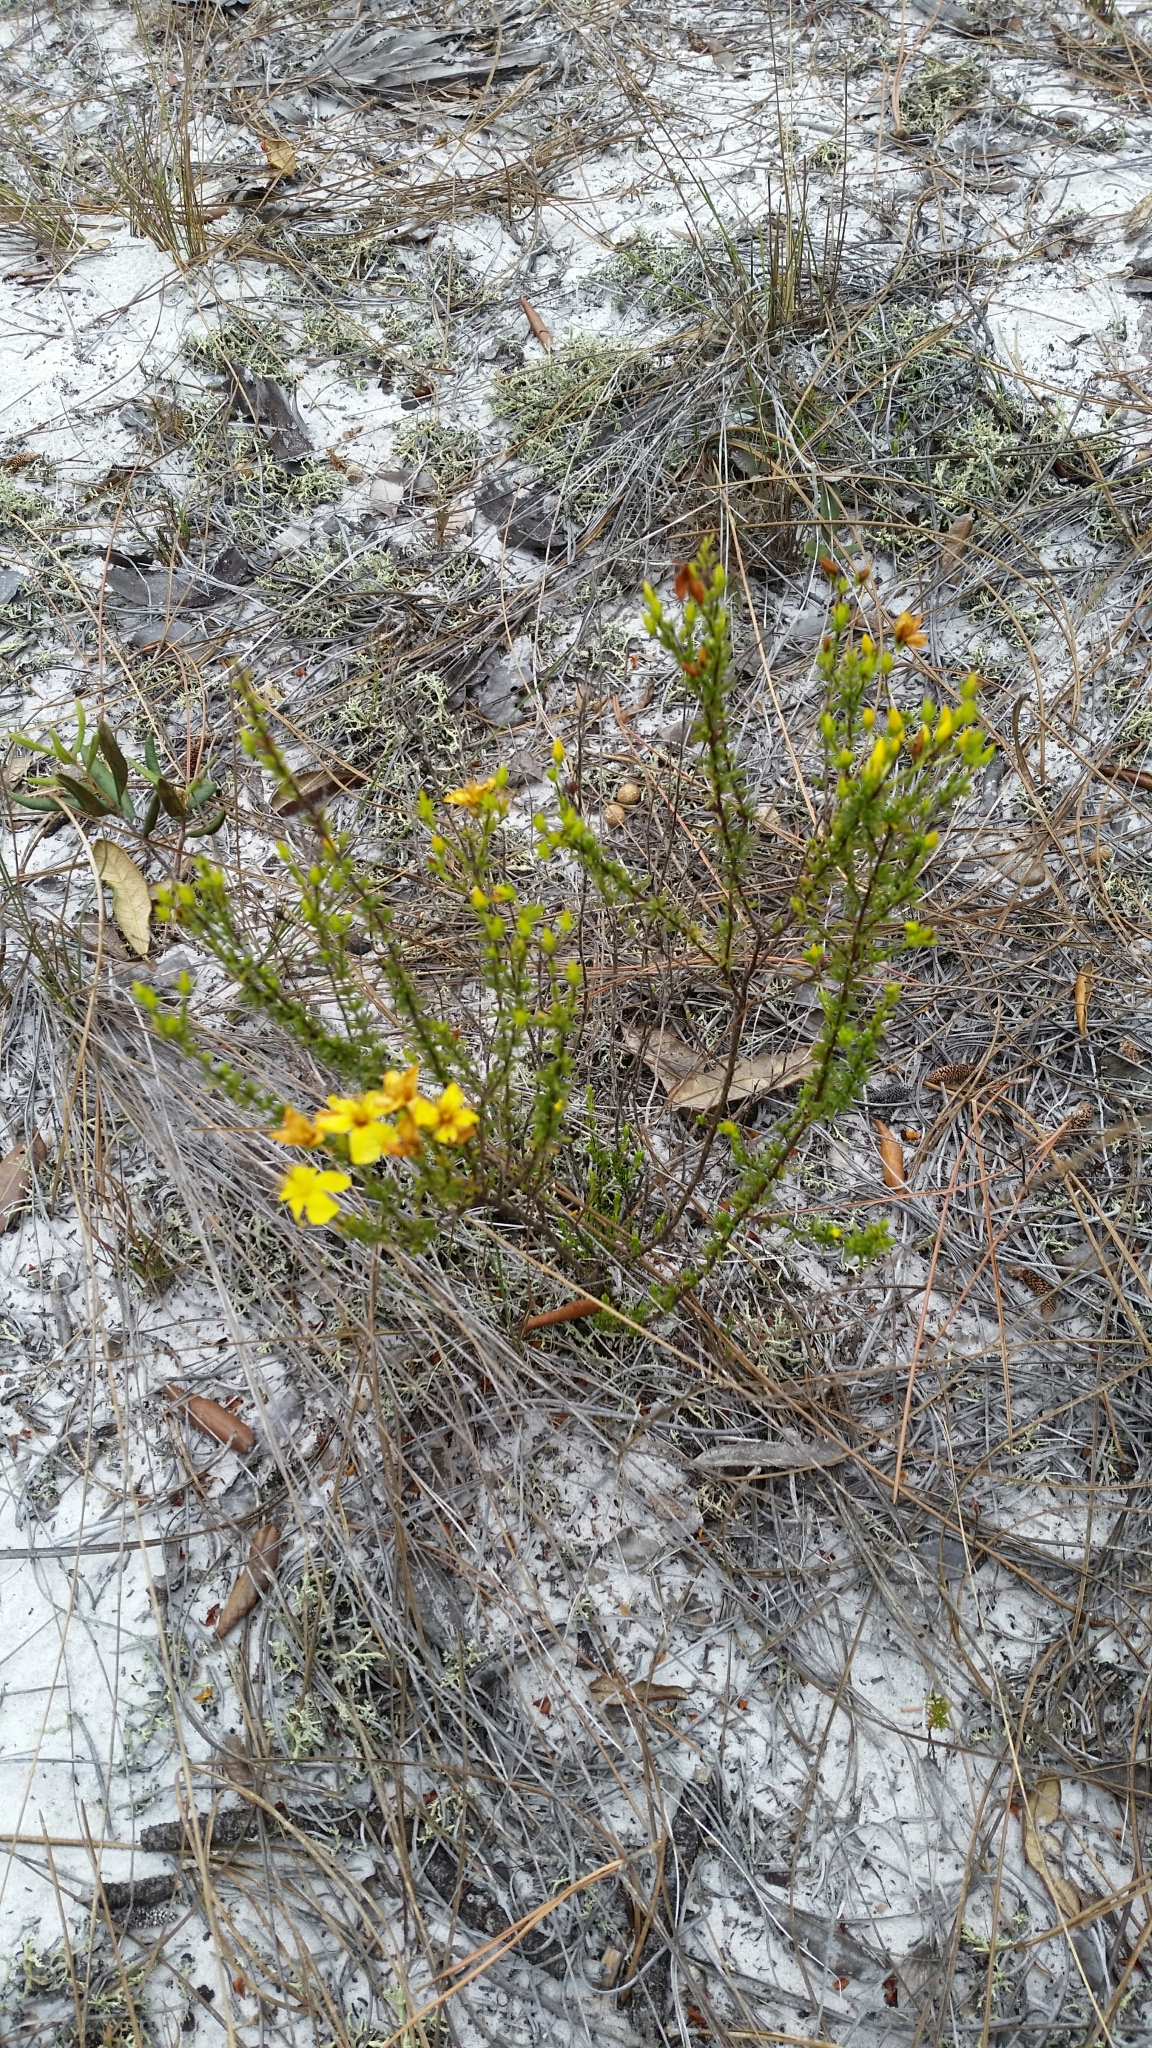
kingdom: Plantae
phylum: Tracheophyta
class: Magnoliopsida
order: Malpighiales
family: Hypericaceae
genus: Hypericum
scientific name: Hypericum tenuifolium
